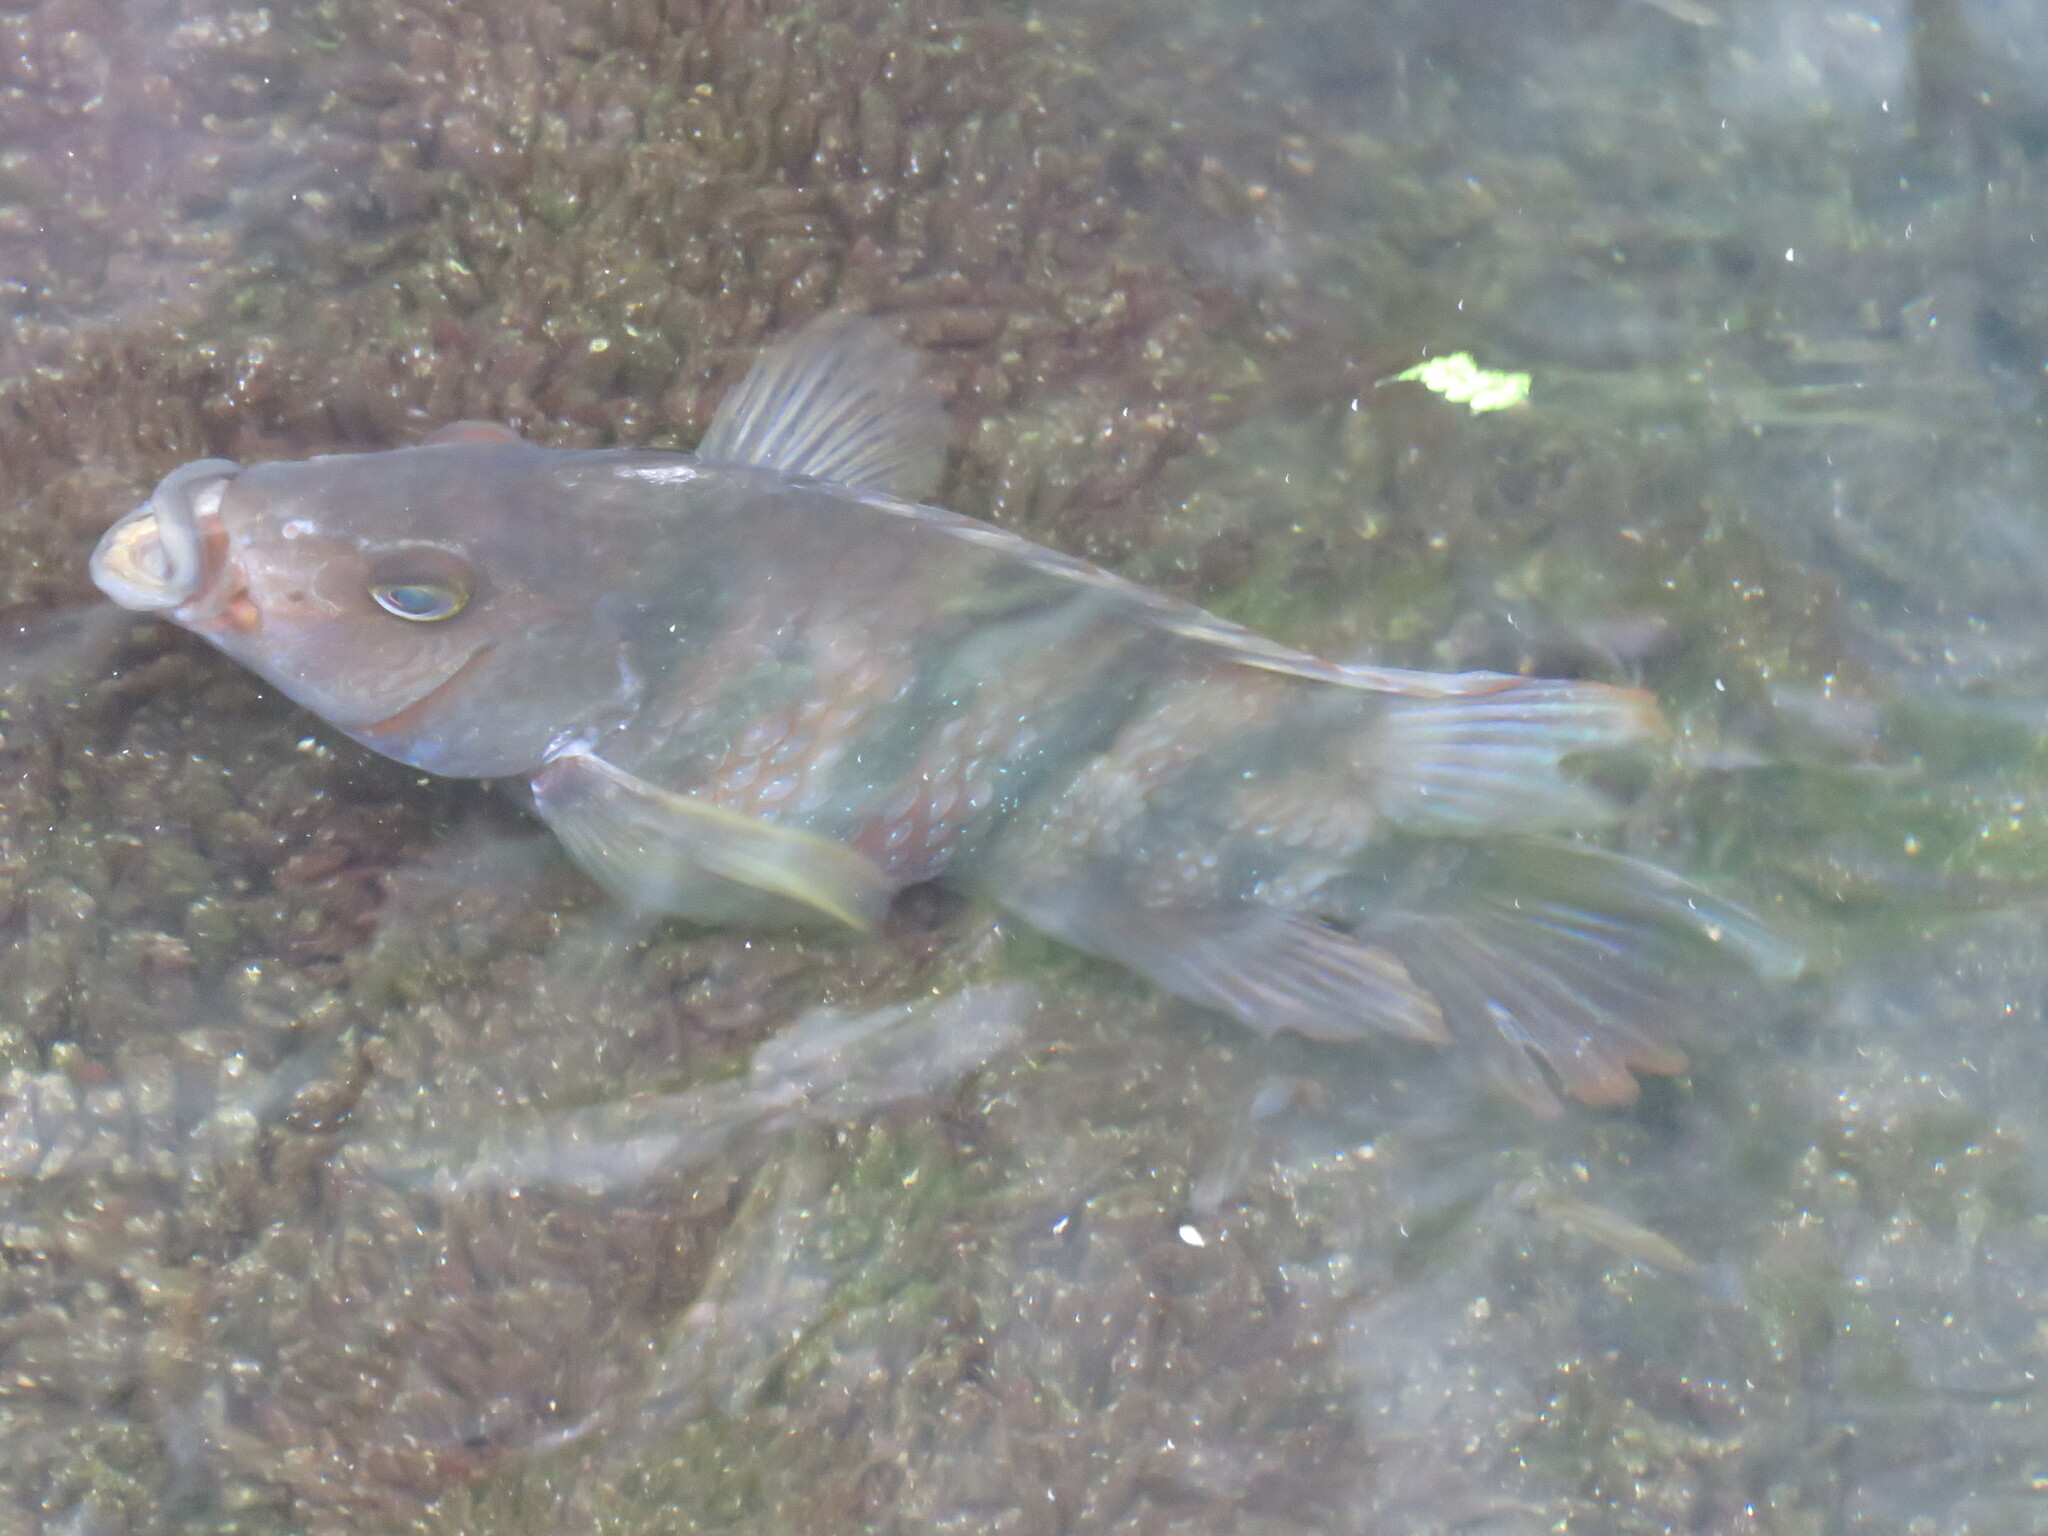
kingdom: Animalia
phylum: Chordata
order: Perciformes
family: Cichlidae
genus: Mayaheros
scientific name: Mayaheros urophthalmus
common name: Mayan cichlid
